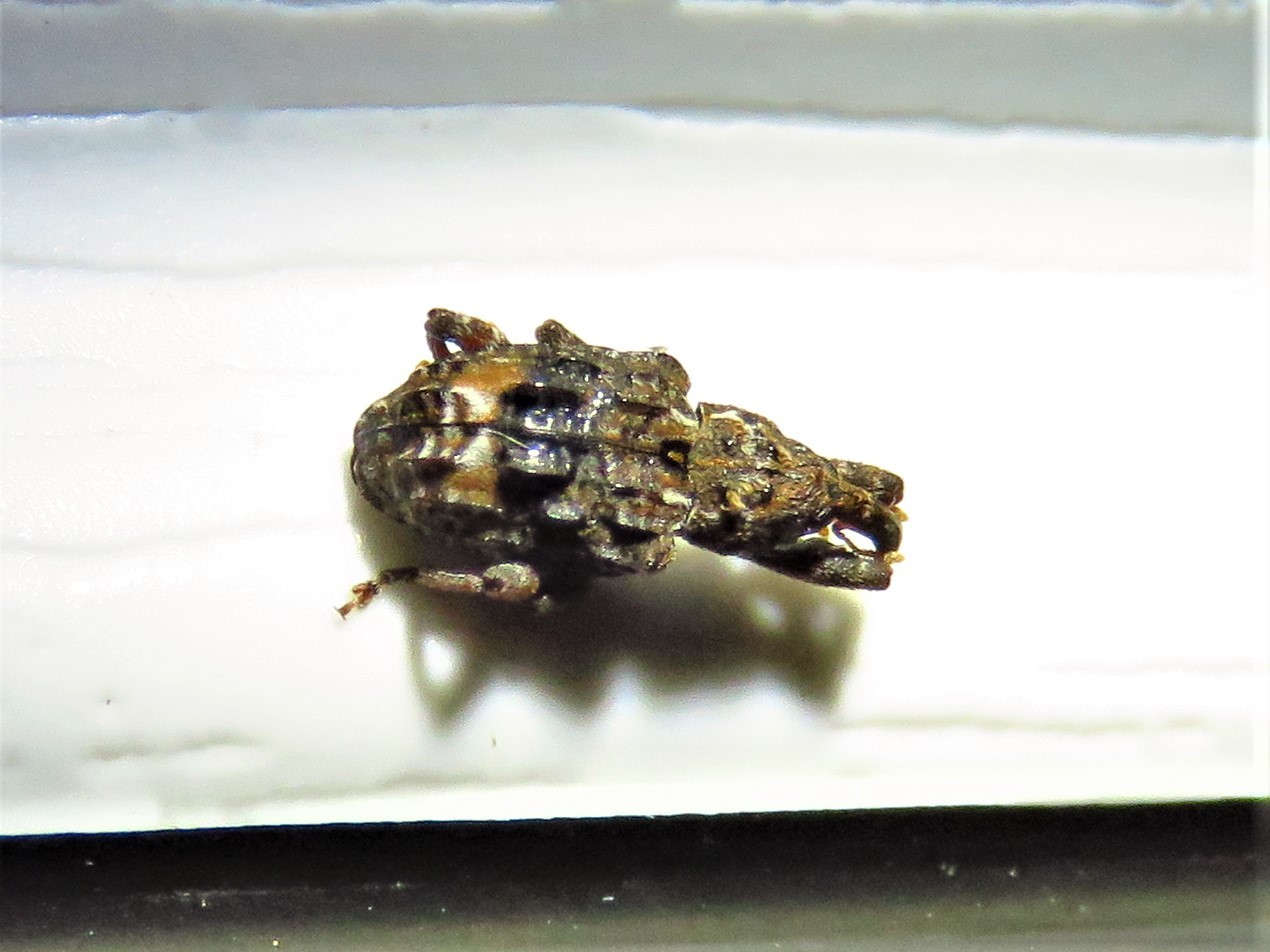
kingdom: Animalia
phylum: Arthropoda
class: Insecta
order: Coleoptera
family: Curculionidae
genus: Conotrachelus
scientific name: Conotrachelus nenuphar
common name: Plum curculio
